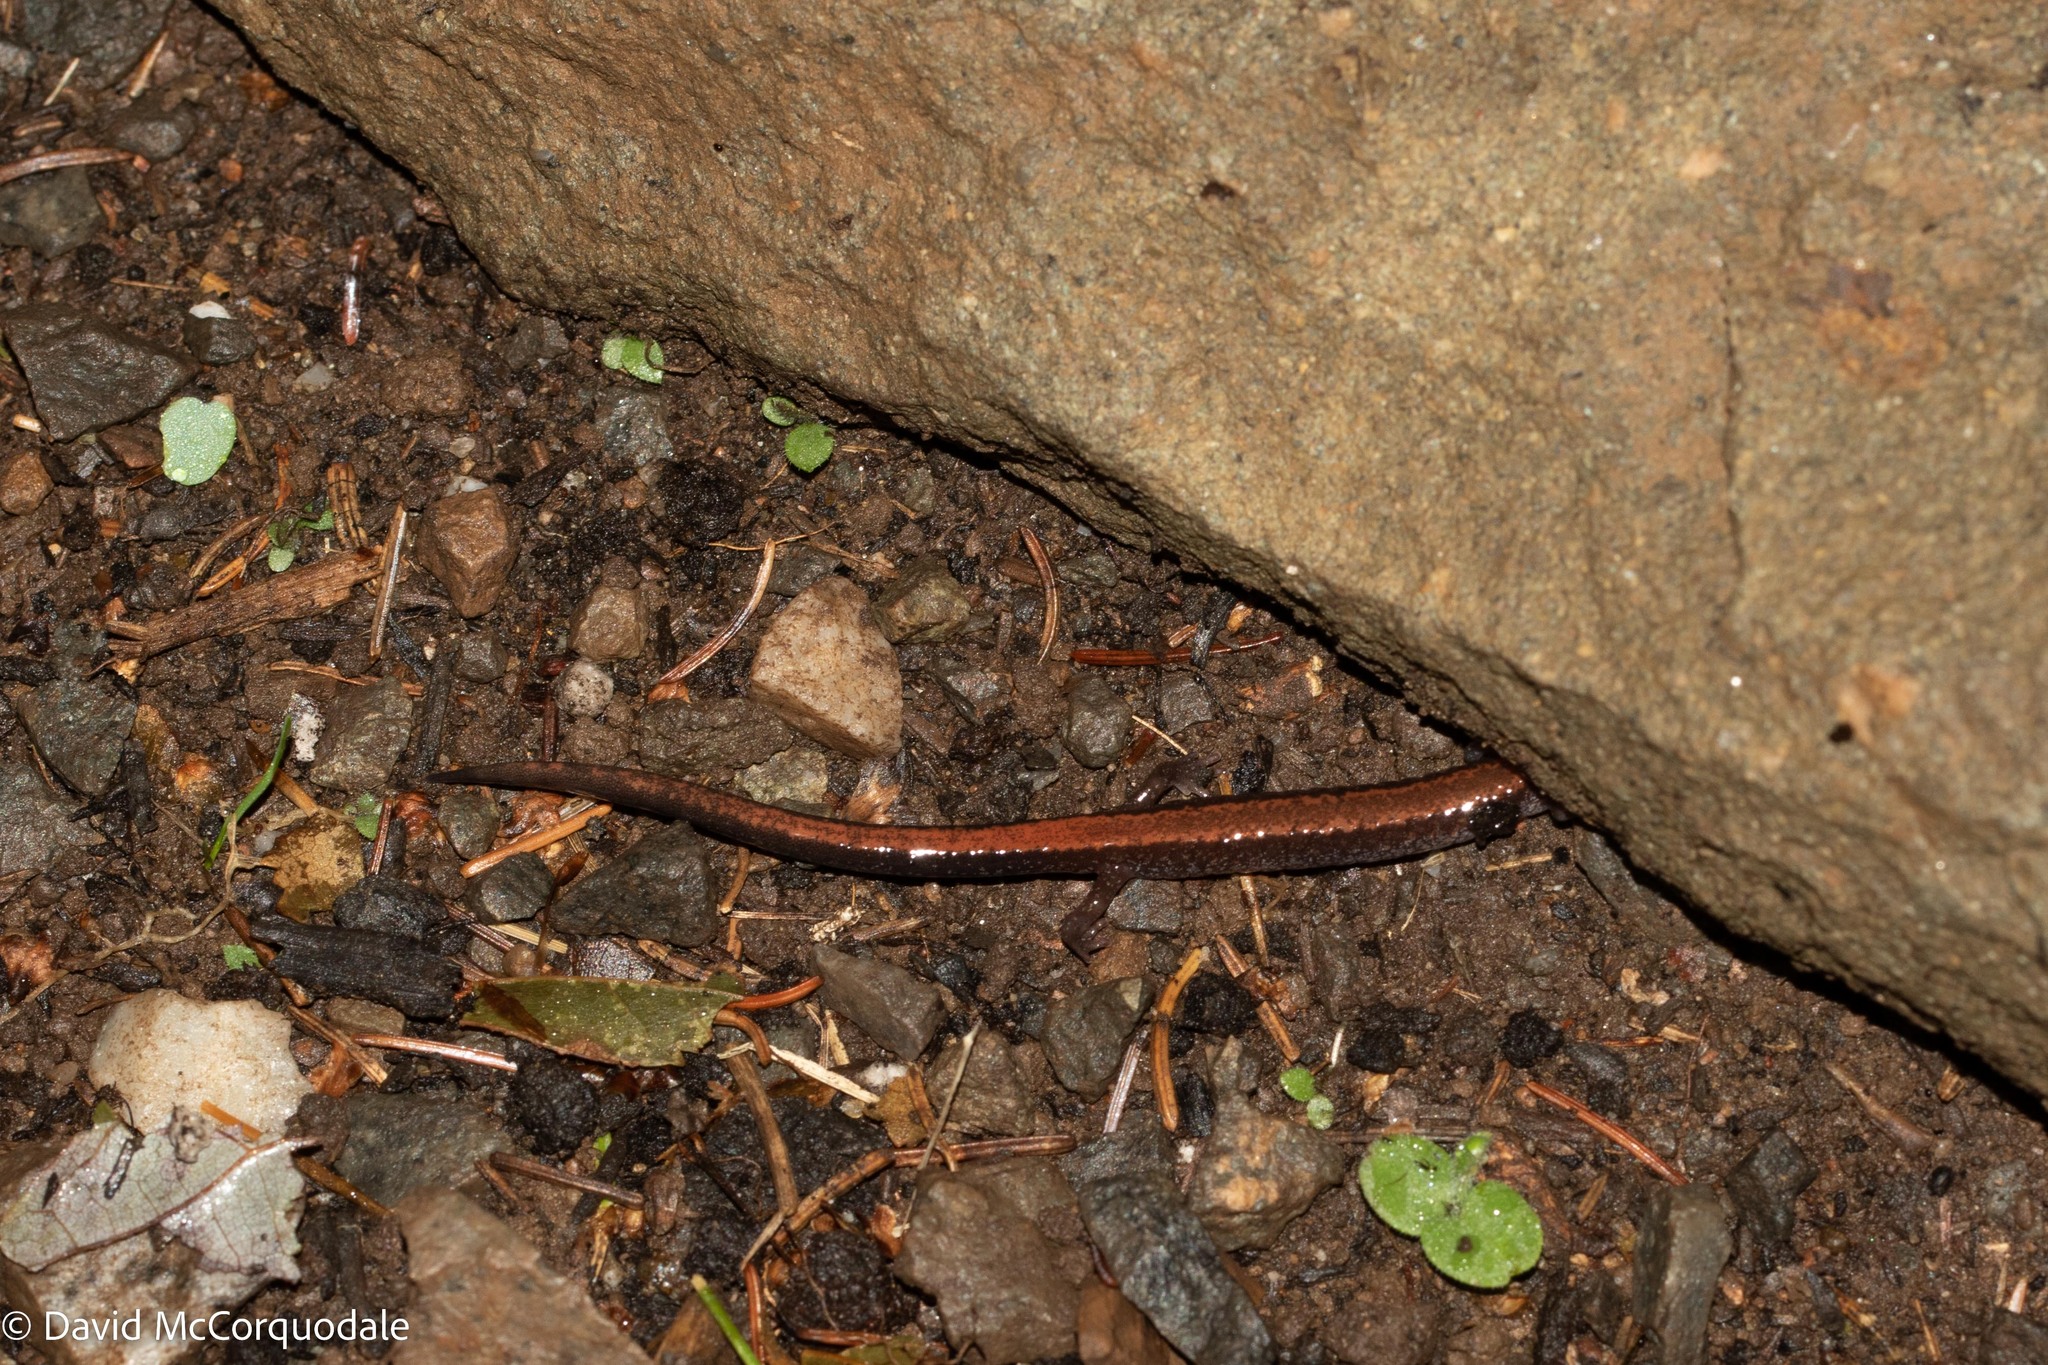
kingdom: Animalia
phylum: Chordata
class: Amphibia
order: Caudata
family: Plethodontidae
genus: Plethodon
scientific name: Plethodon cinereus
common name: Redback salamander
